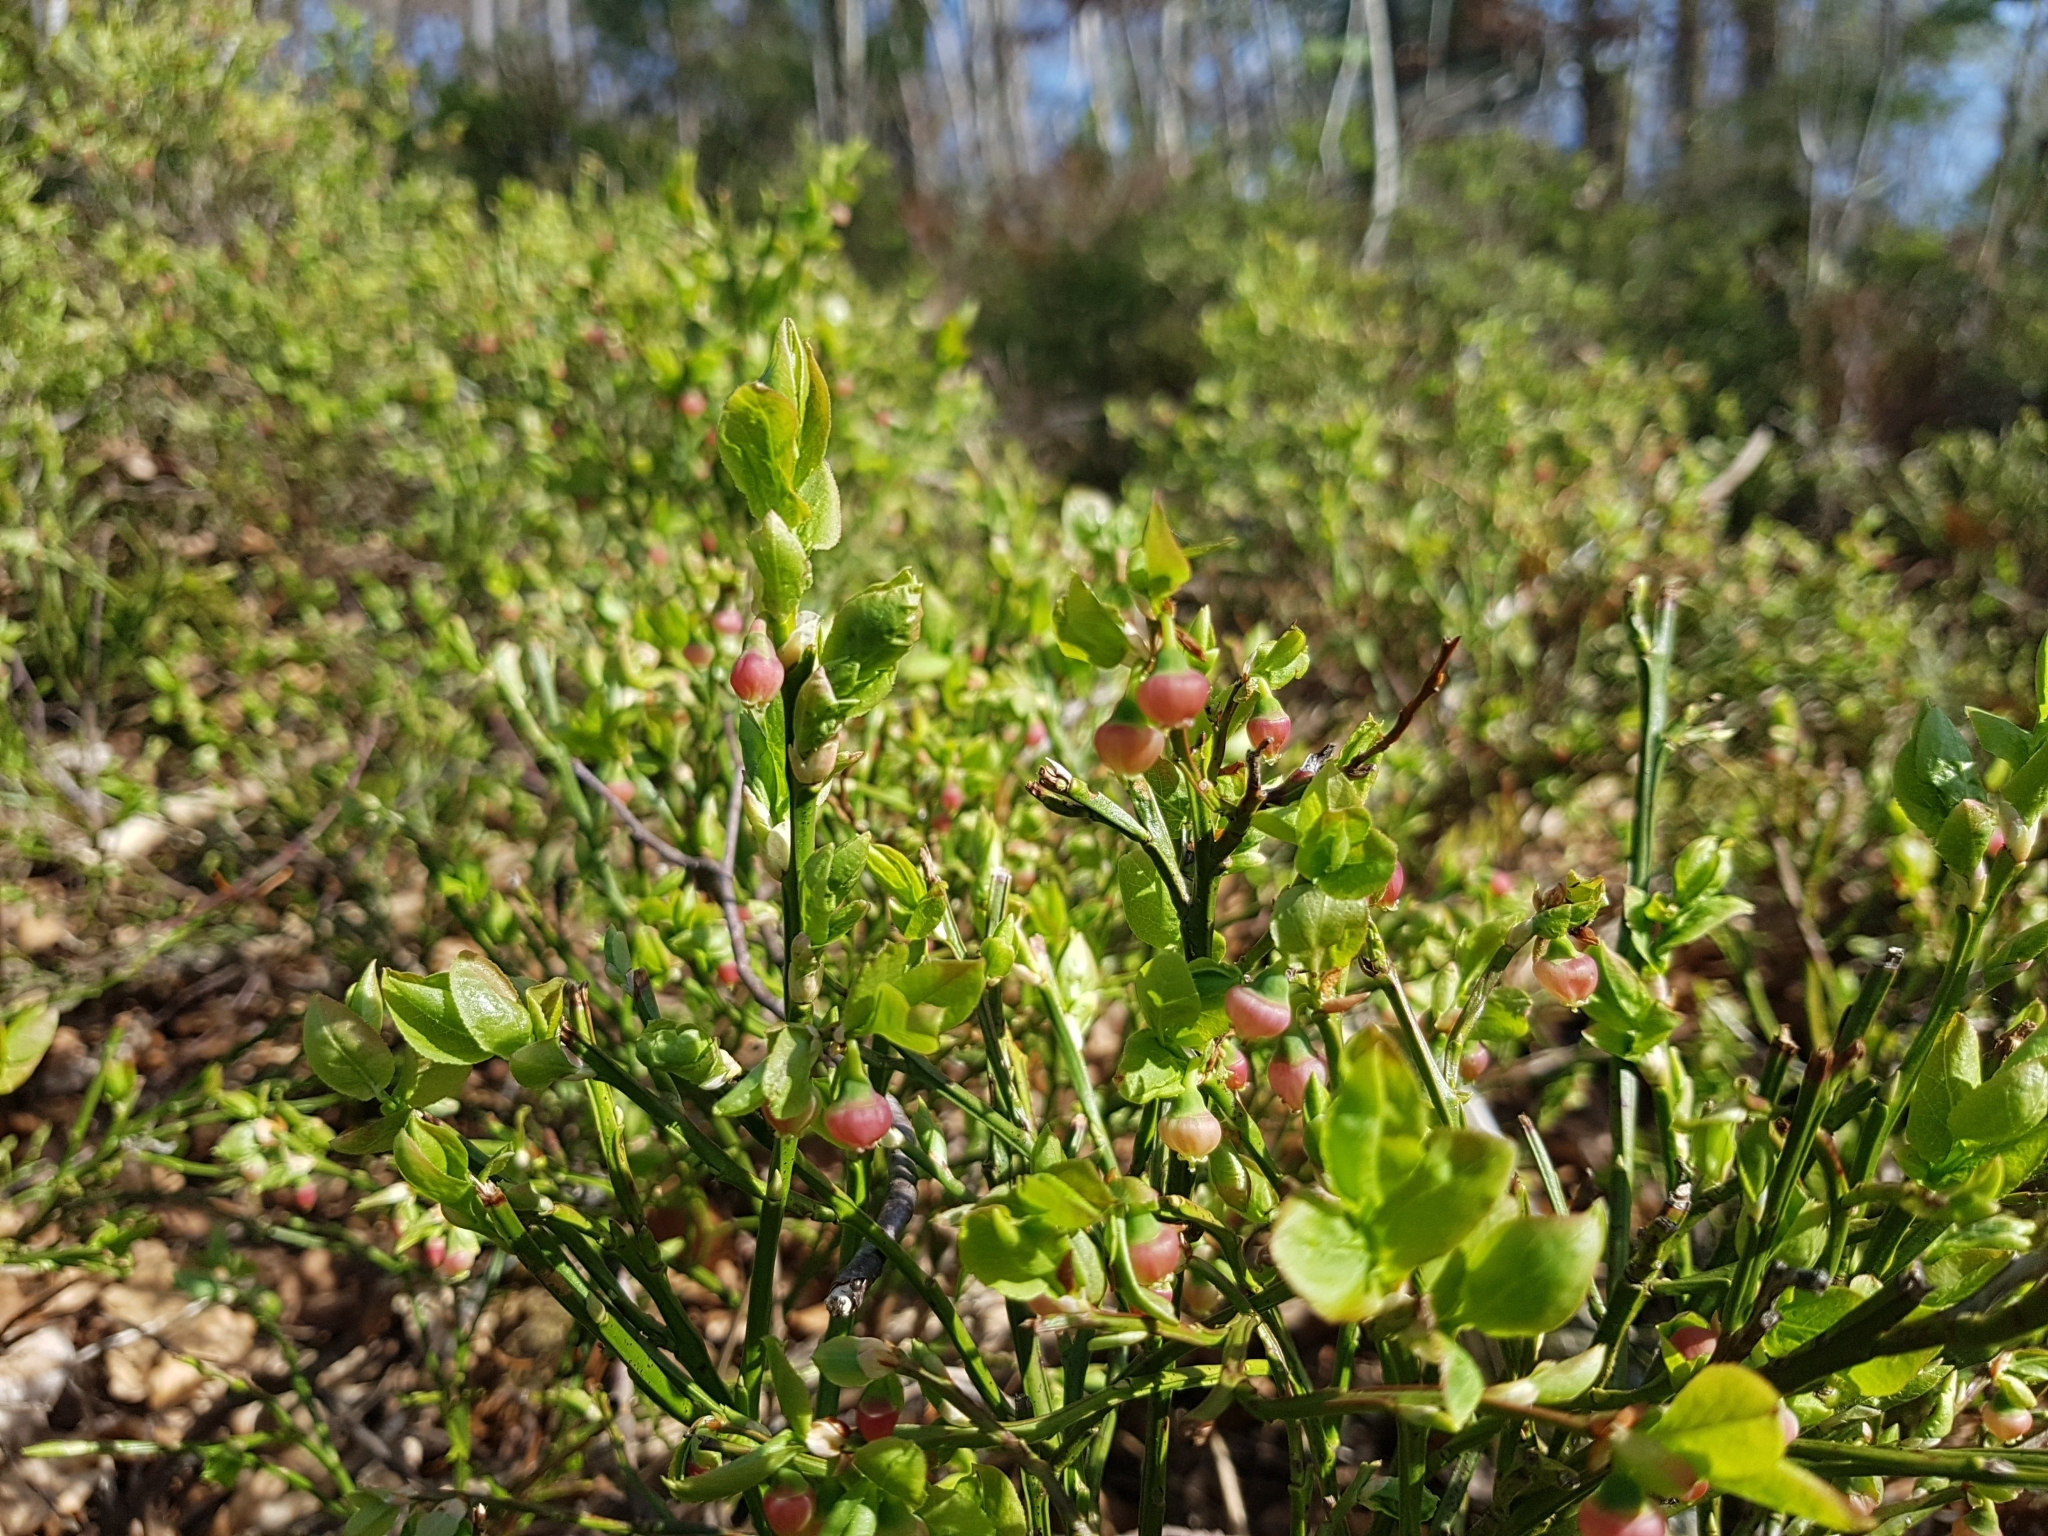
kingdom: Plantae
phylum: Tracheophyta
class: Magnoliopsida
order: Ericales
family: Ericaceae
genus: Vaccinium
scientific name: Vaccinium myrtillus
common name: Bilberry
